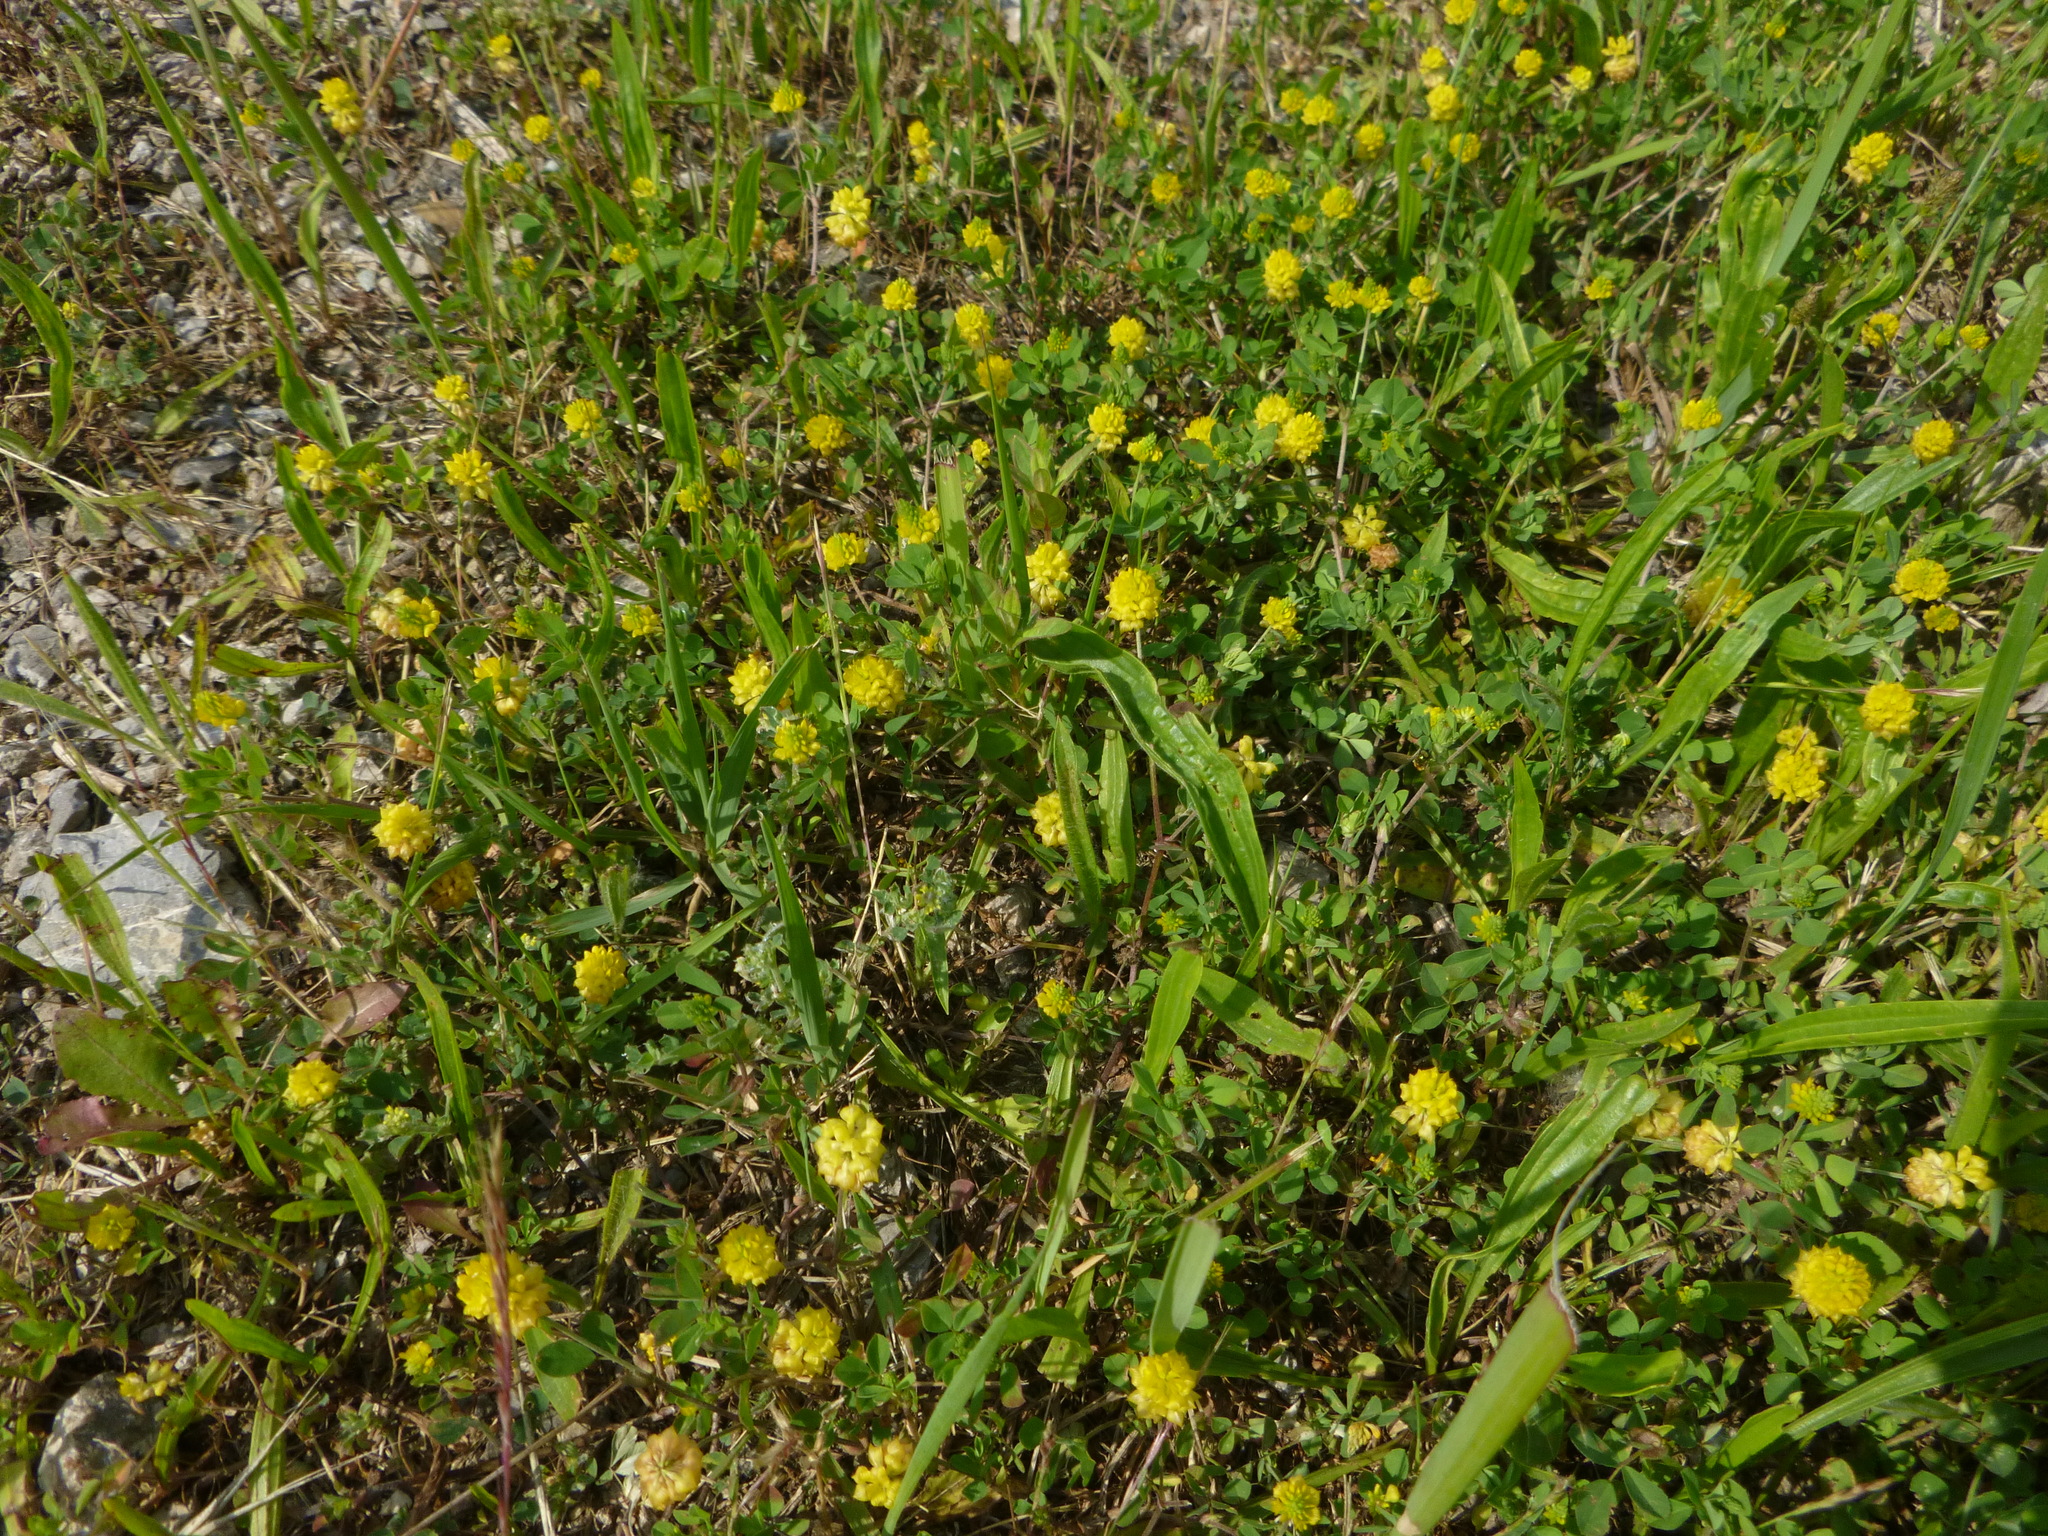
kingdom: Plantae
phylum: Tracheophyta
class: Magnoliopsida
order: Fabales
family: Fabaceae
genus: Trifolium
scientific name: Trifolium campestre
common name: Field clover
